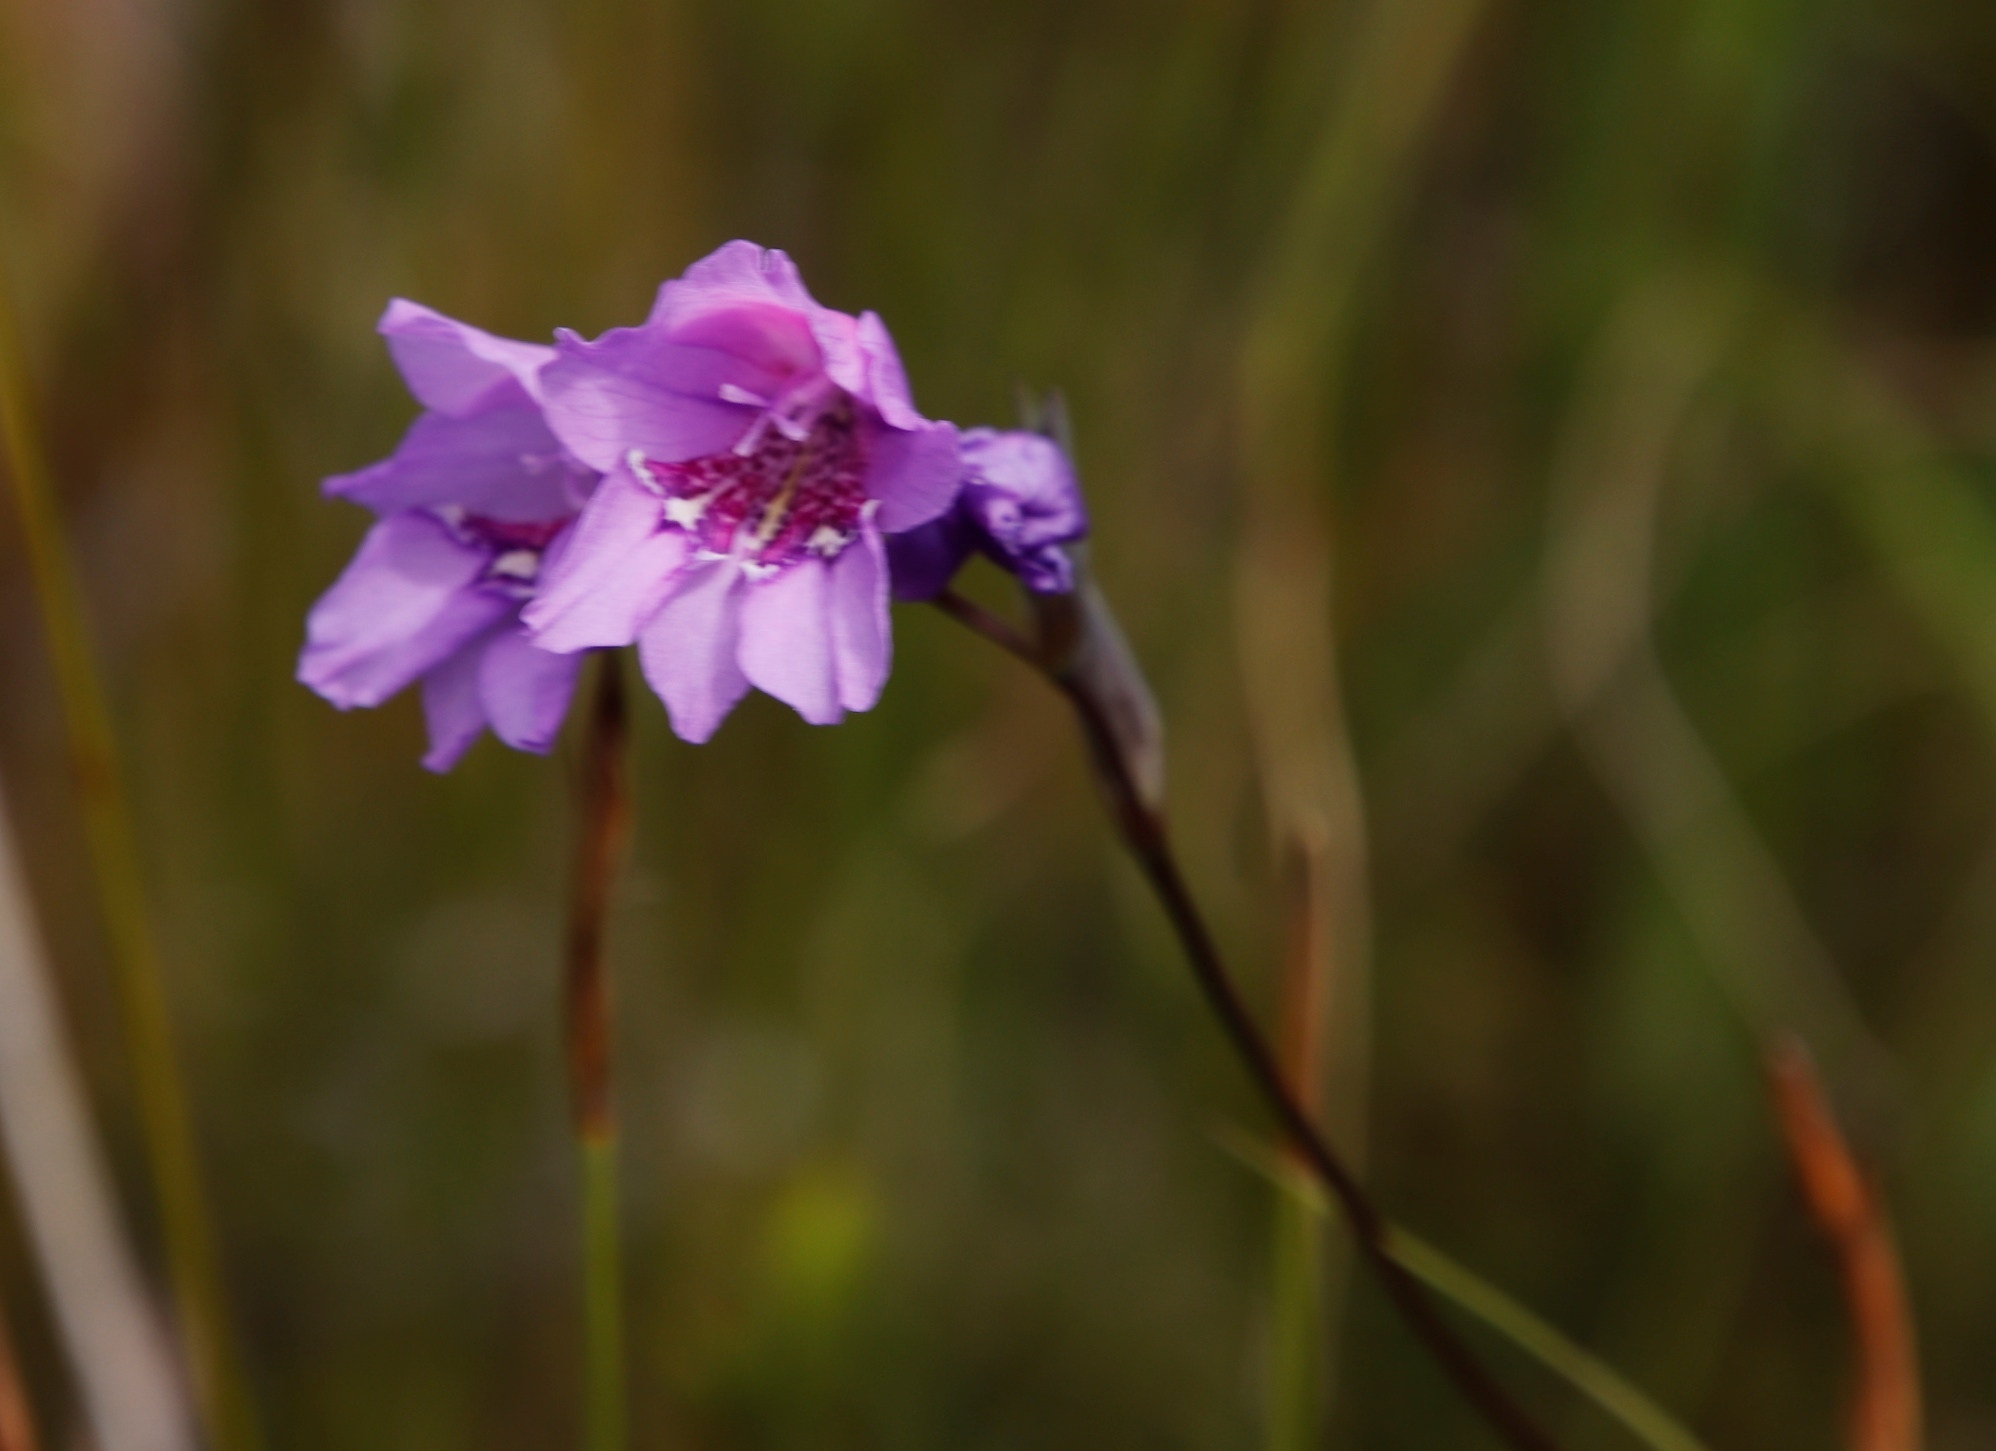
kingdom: Plantae
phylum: Tracheophyta
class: Liliopsida
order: Asparagales
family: Iridaceae
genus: Gladiolus
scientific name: Gladiolus rogersii
